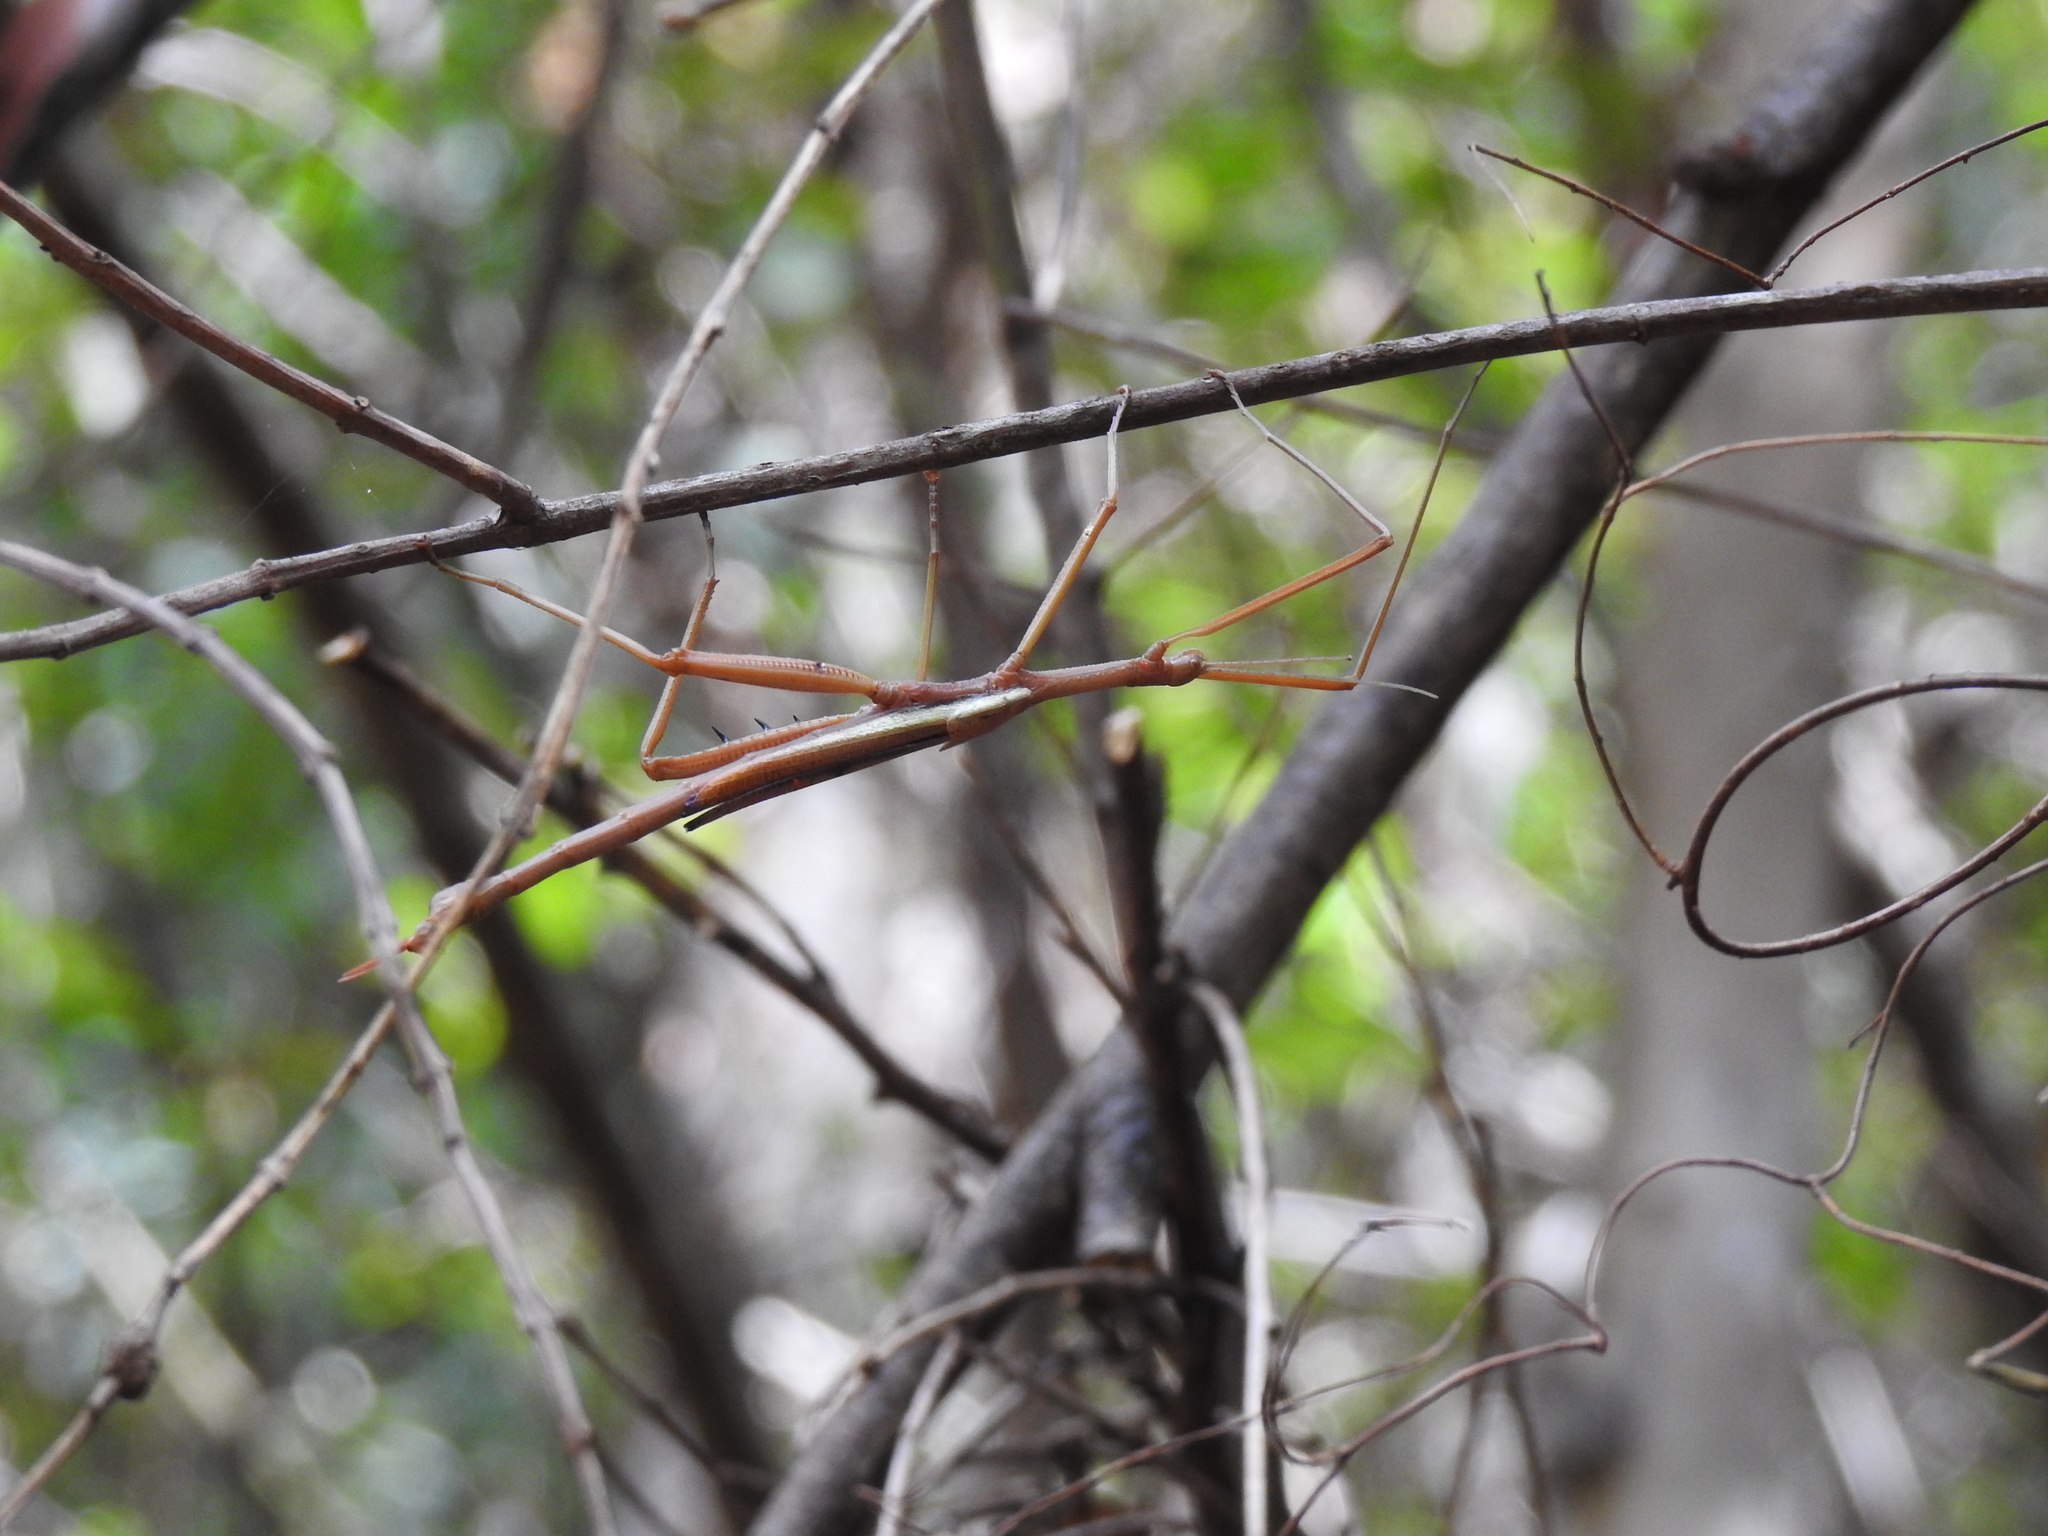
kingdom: Animalia
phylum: Arthropoda
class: Insecta
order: Phasmida
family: Phasmatidae
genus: Didymuria
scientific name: Didymuria violescens
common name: Spur-legged stick-insect
